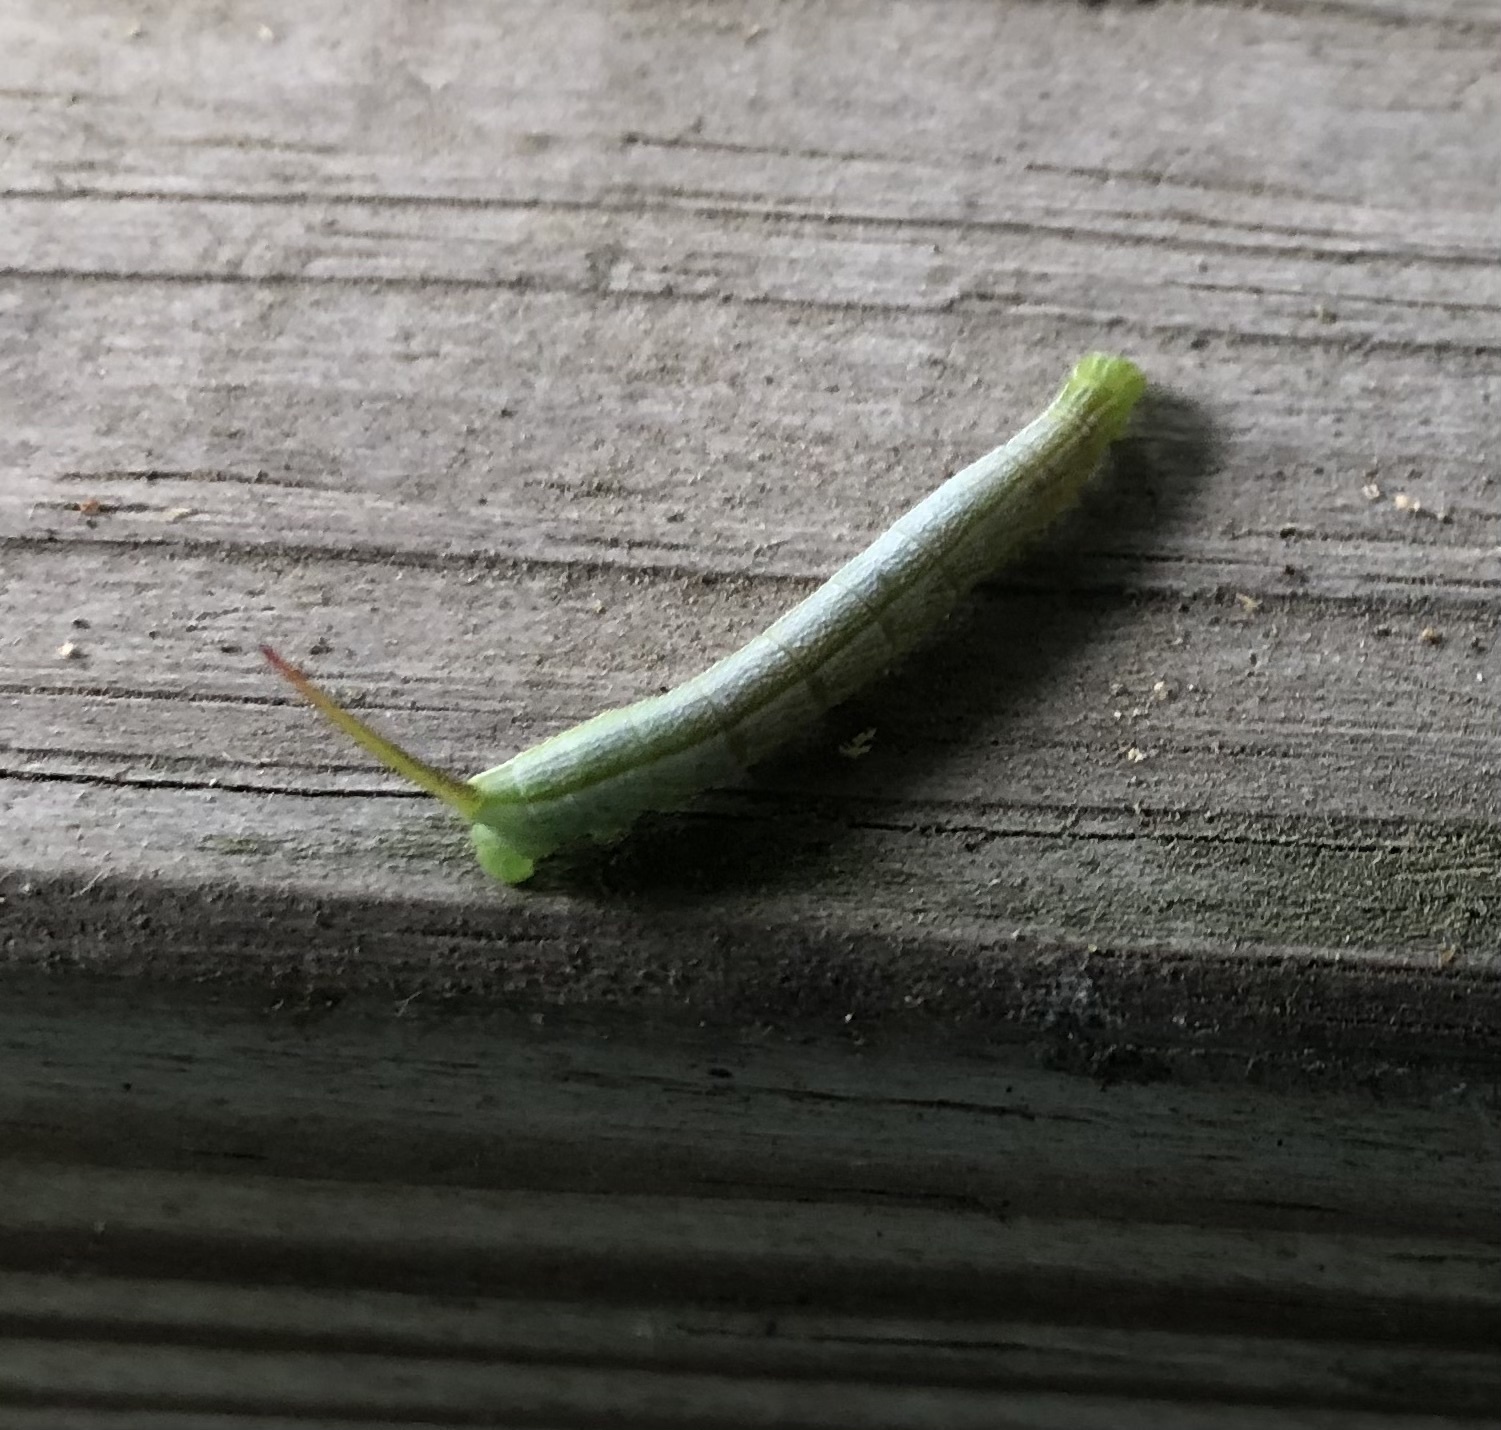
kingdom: Animalia
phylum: Arthropoda
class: Insecta
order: Lepidoptera
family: Sphingidae
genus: Enyo
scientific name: Enyo lugubris
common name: Mournful sphinx
